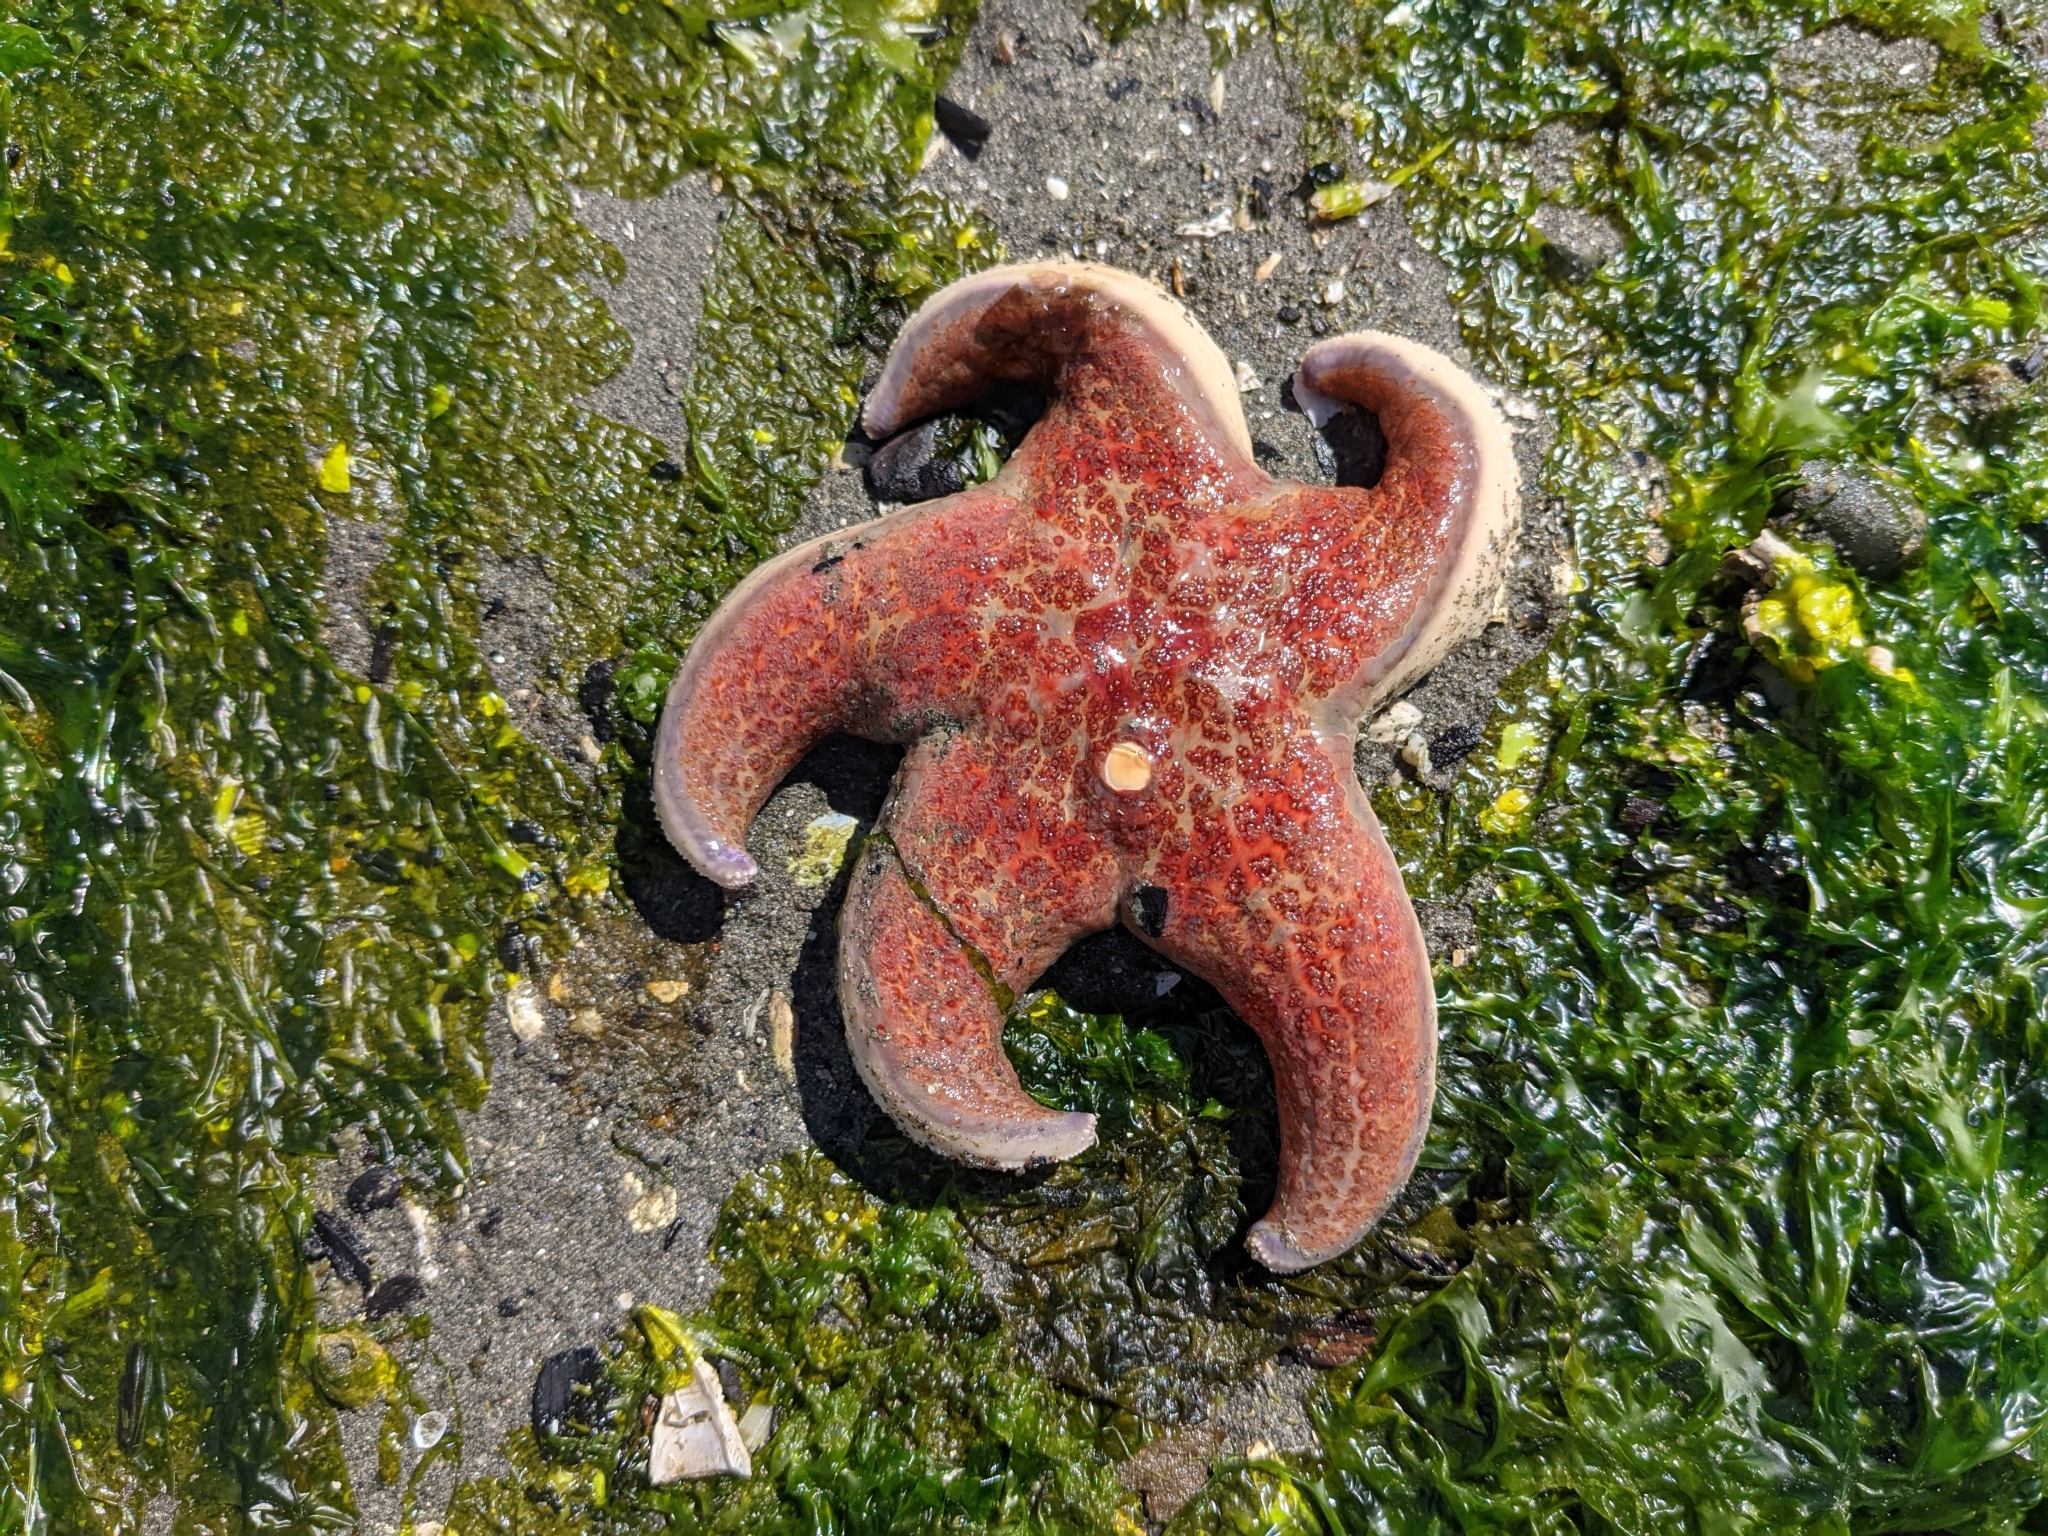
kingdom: Animalia
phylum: Echinodermata
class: Asteroidea
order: Valvatida
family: Asteropseidae
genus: Dermasterias
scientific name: Dermasterias imbricata
